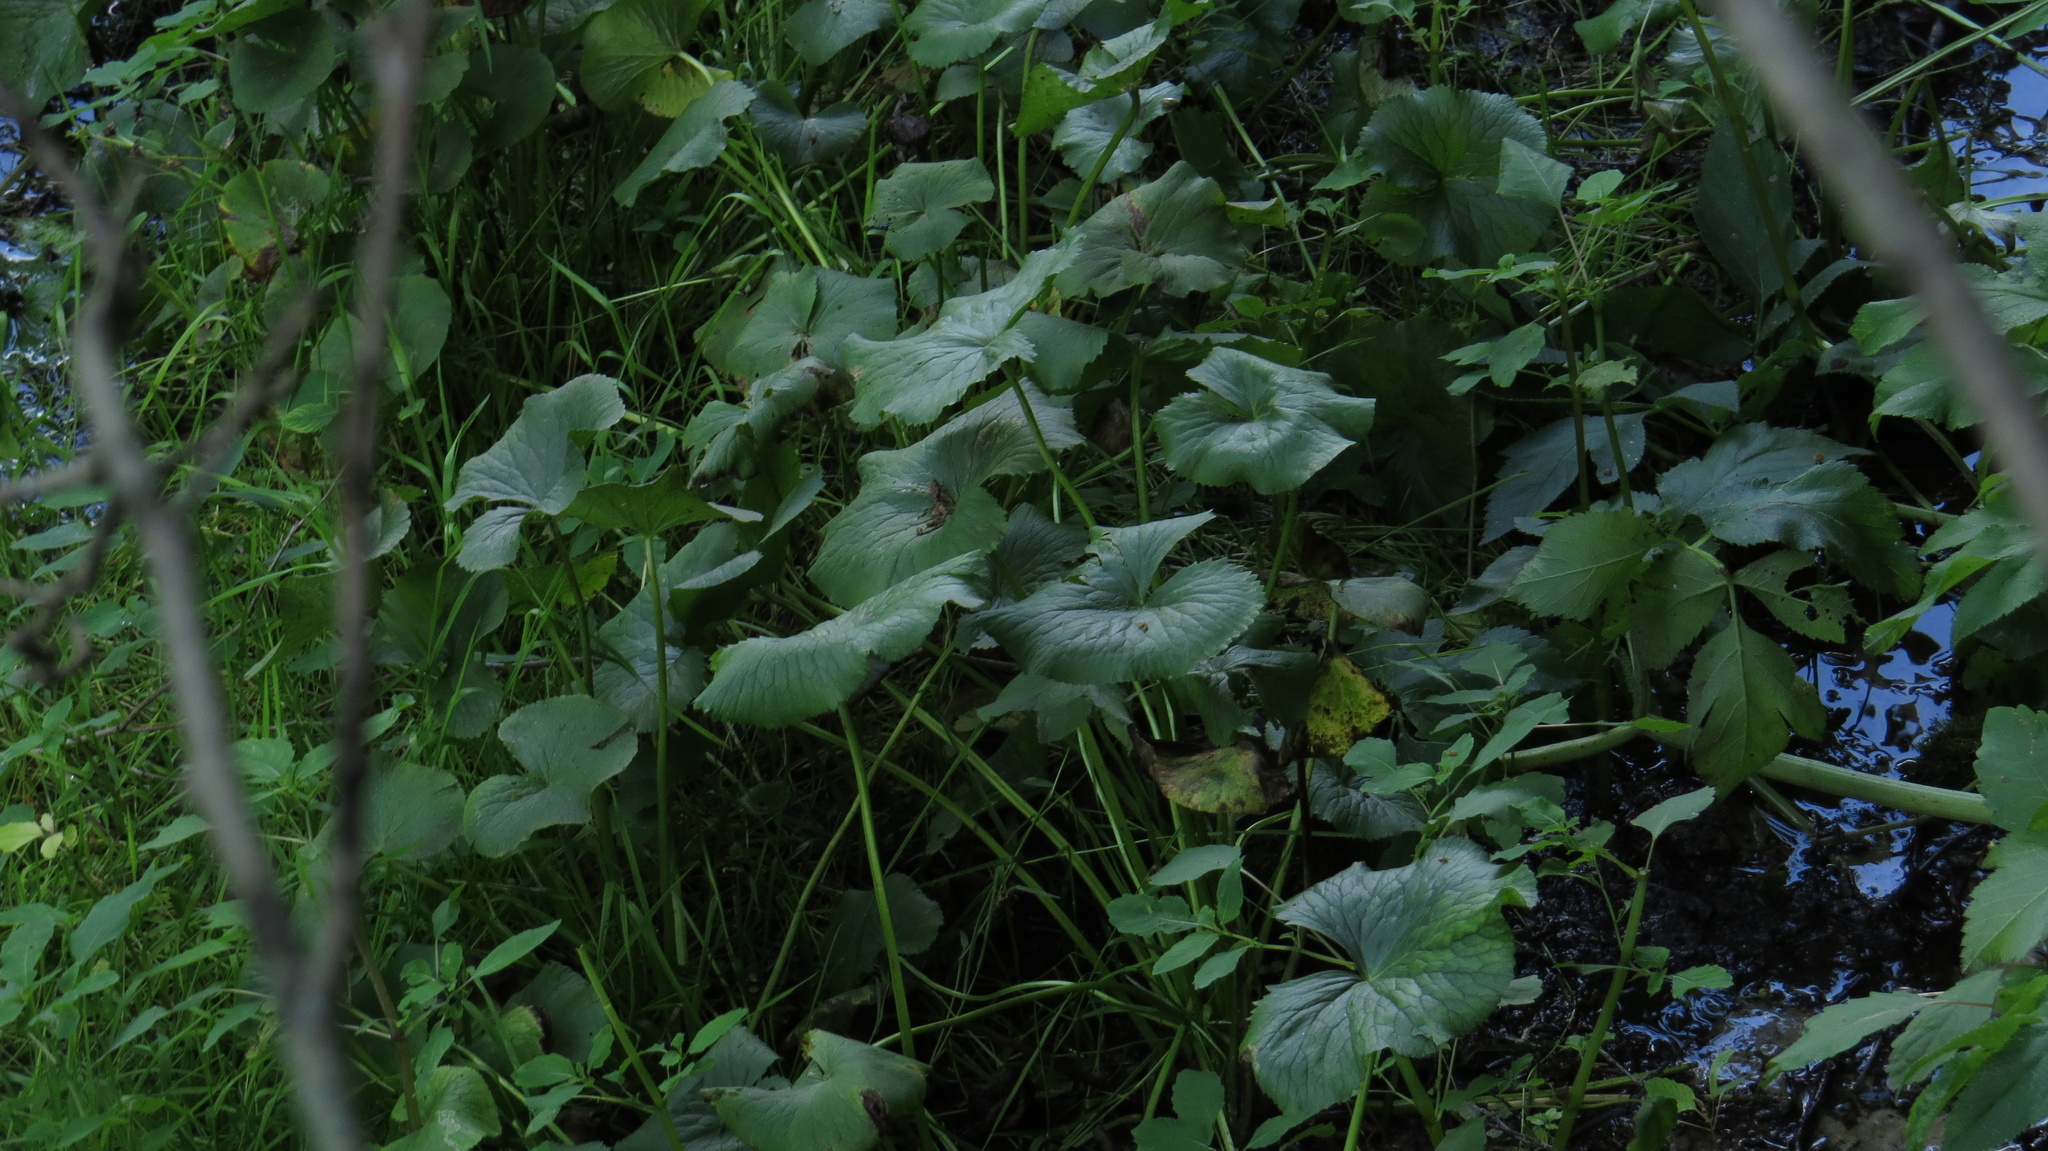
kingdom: Plantae
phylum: Tracheophyta
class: Magnoliopsida
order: Ranunculales
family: Ranunculaceae
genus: Caltha
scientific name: Caltha palustris
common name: Marsh marigold
